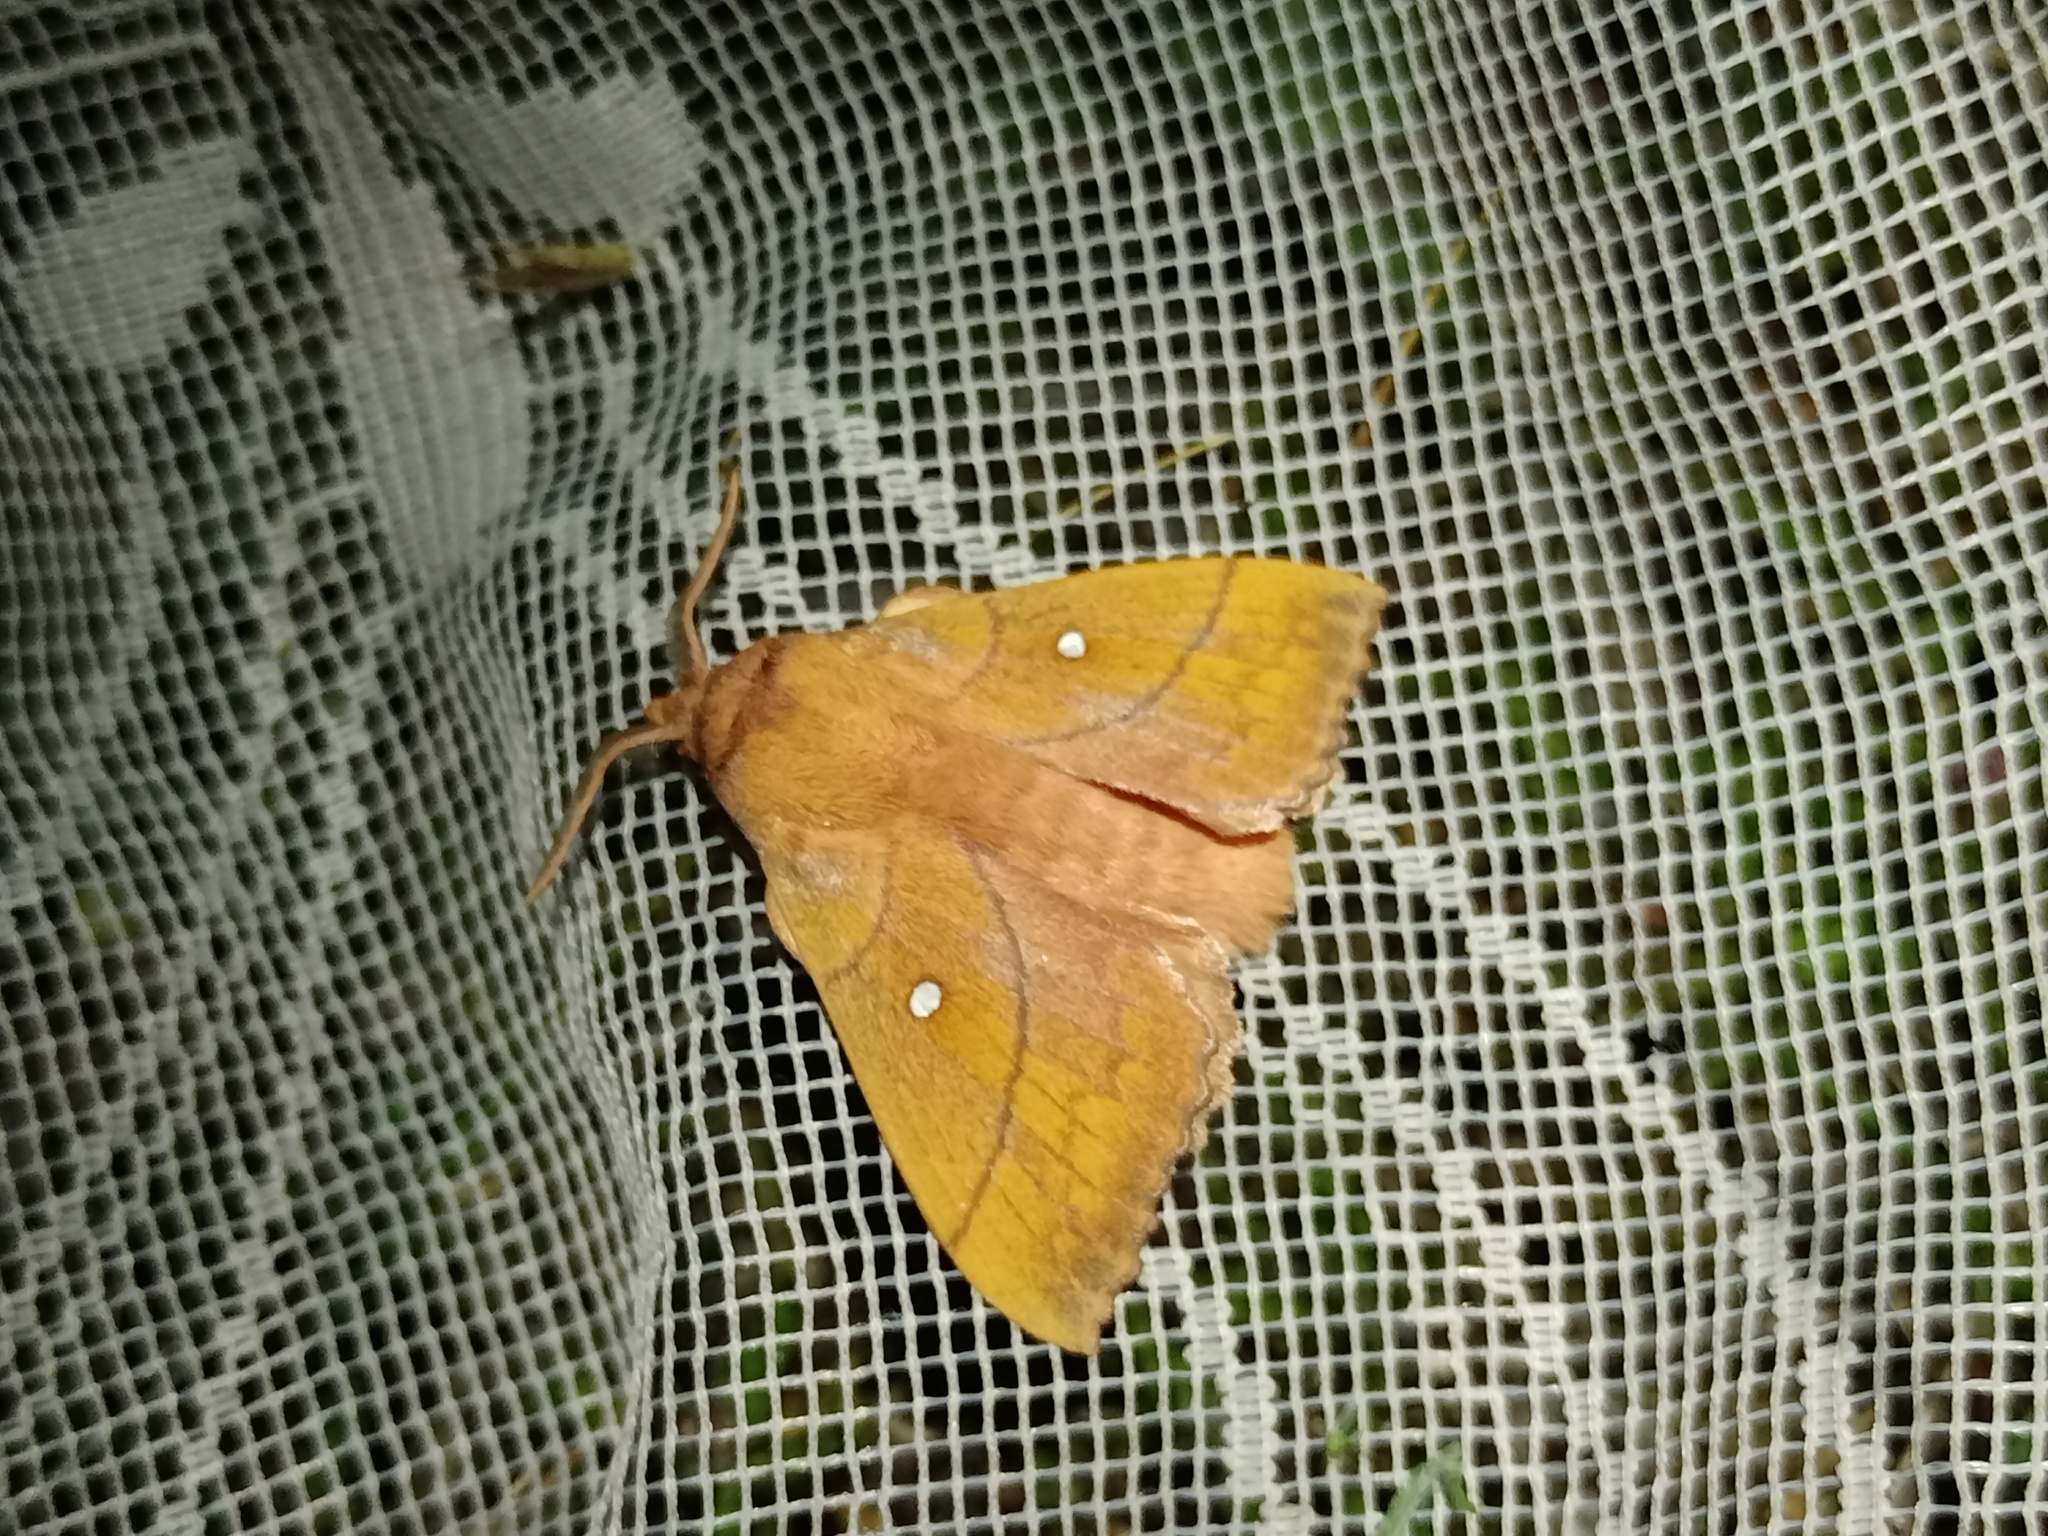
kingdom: Animalia
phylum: Arthropoda
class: Insecta
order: Lepidoptera
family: Lasiocampidae
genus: Odonestis
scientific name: Odonestis pruni
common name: Plum lappet
